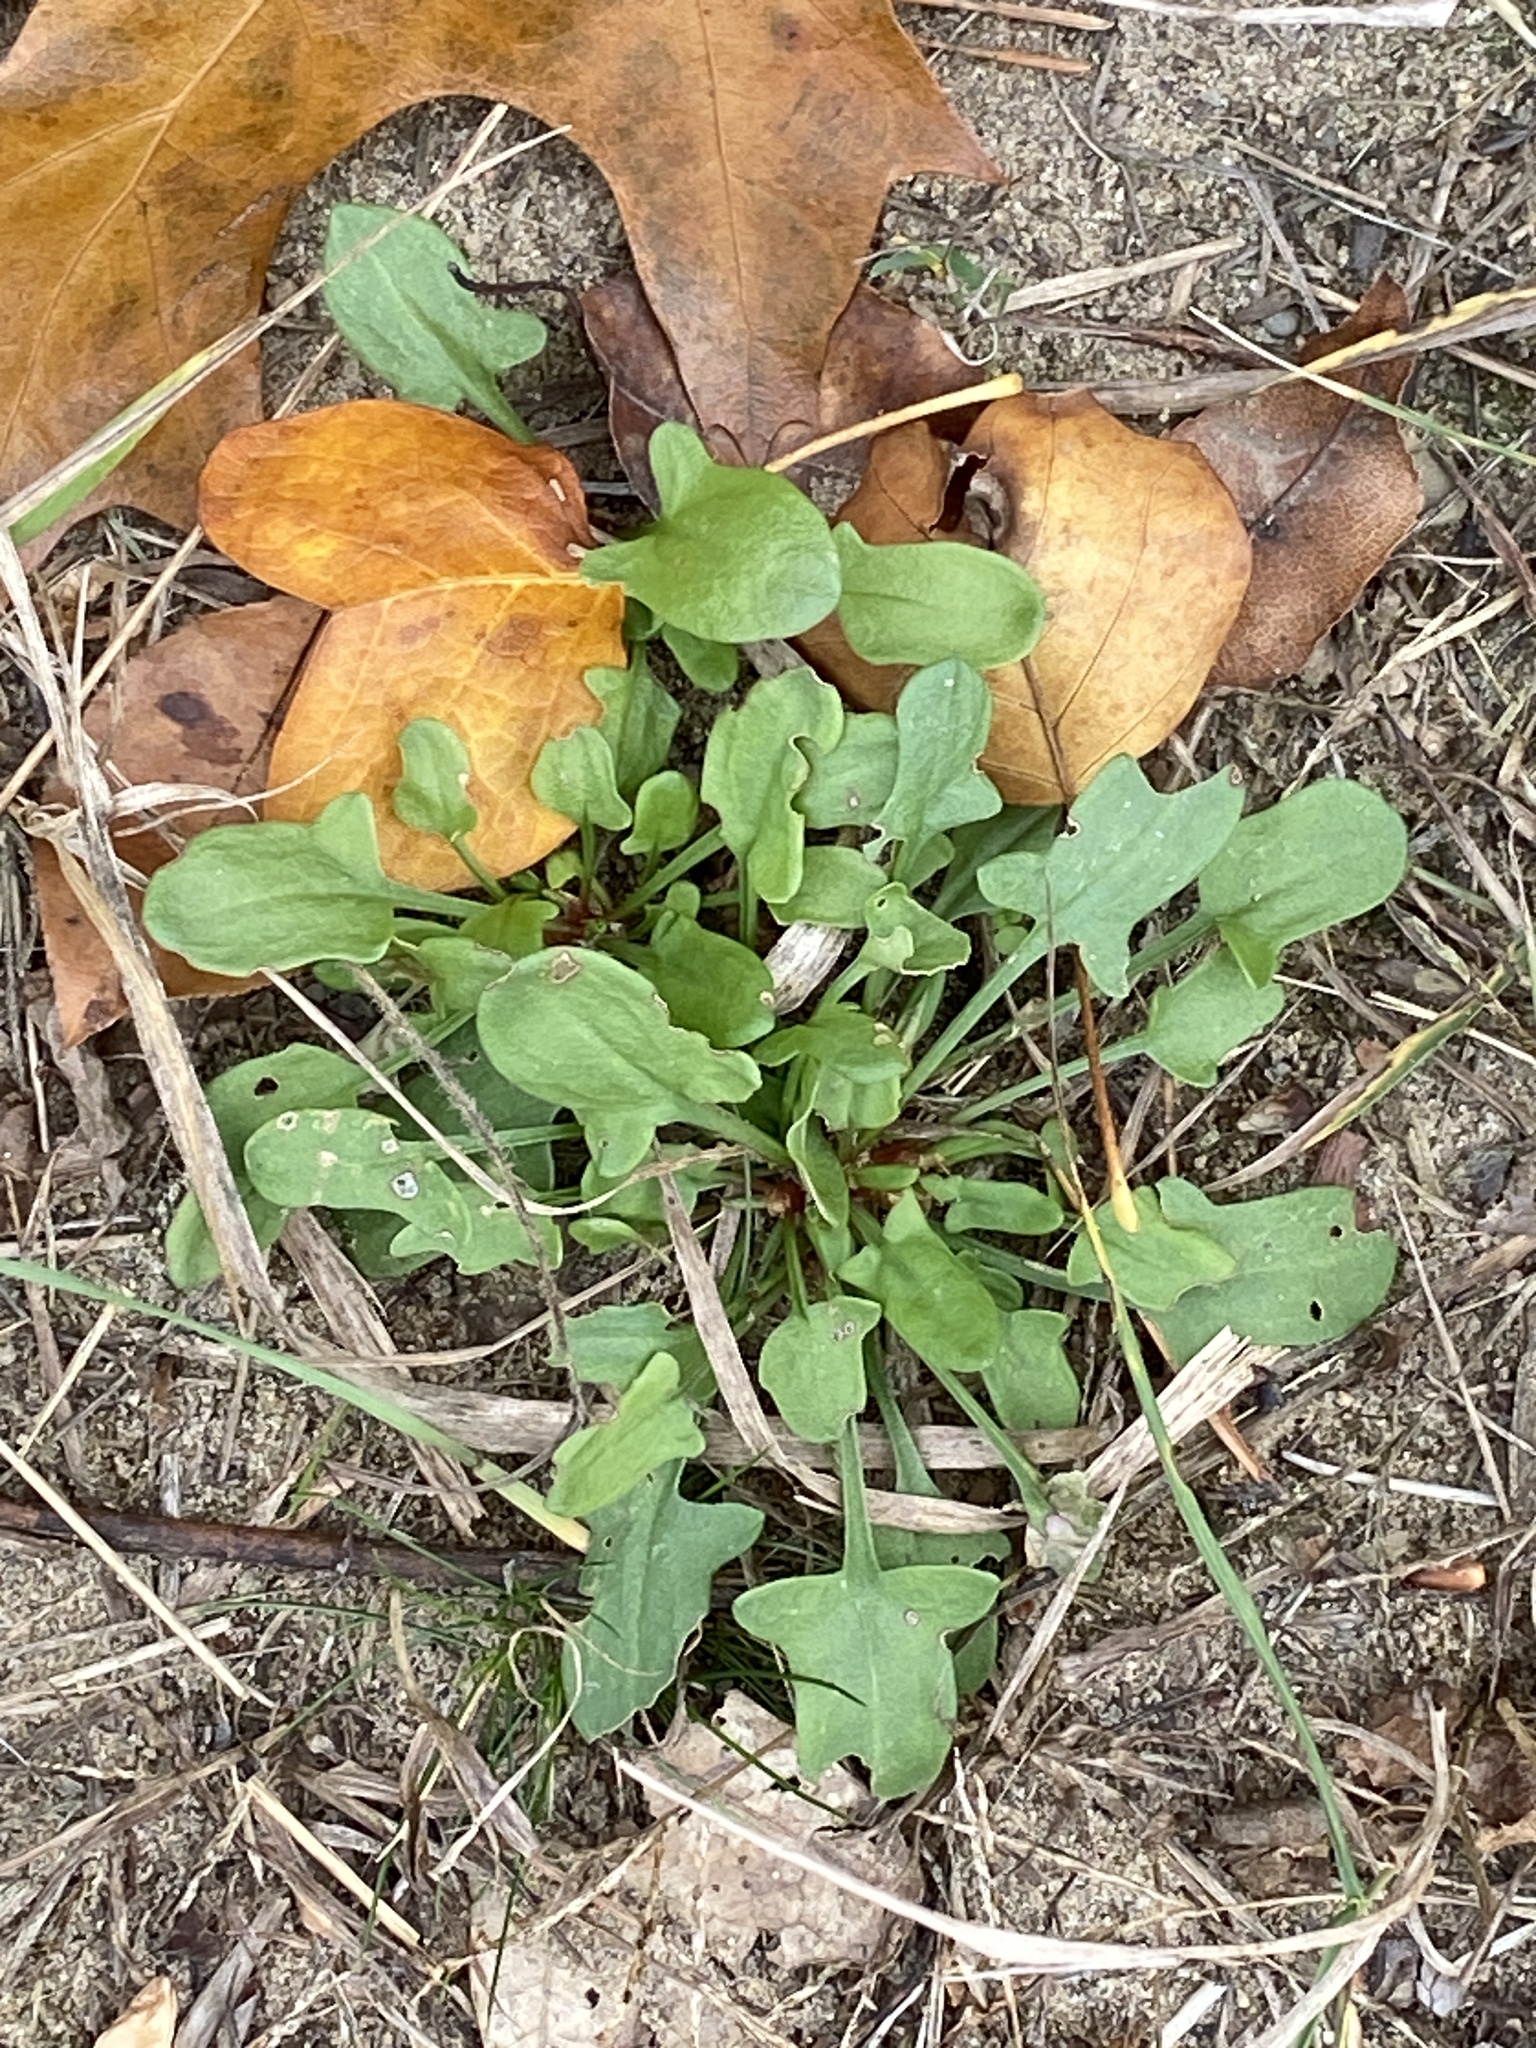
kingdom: Plantae
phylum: Tracheophyta
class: Magnoliopsida
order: Caryophyllales
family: Polygonaceae
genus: Rumex
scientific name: Rumex acetosella
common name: Common sheep sorrel
